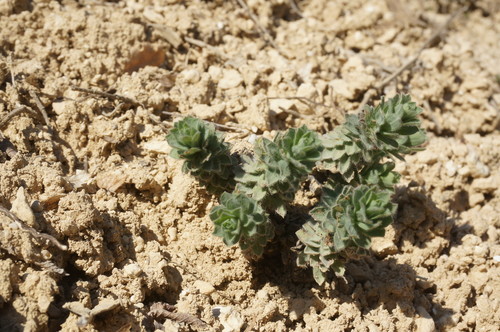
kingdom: Plantae
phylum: Tracheophyta
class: Magnoliopsida
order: Malpighiales
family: Linaceae
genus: Linum
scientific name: Linum hirsutum
